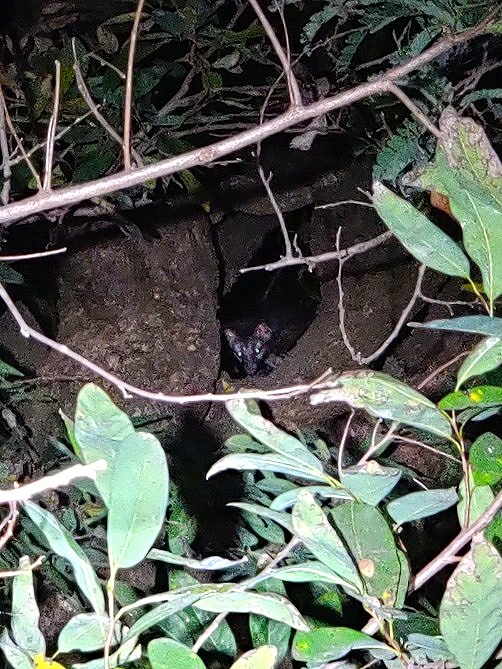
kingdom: Animalia
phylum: Chordata
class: Mammalia
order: Carnivora
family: Viverridae
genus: Paradoxurus
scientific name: Paradoxurus hermaphroditus
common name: Common palm civet
